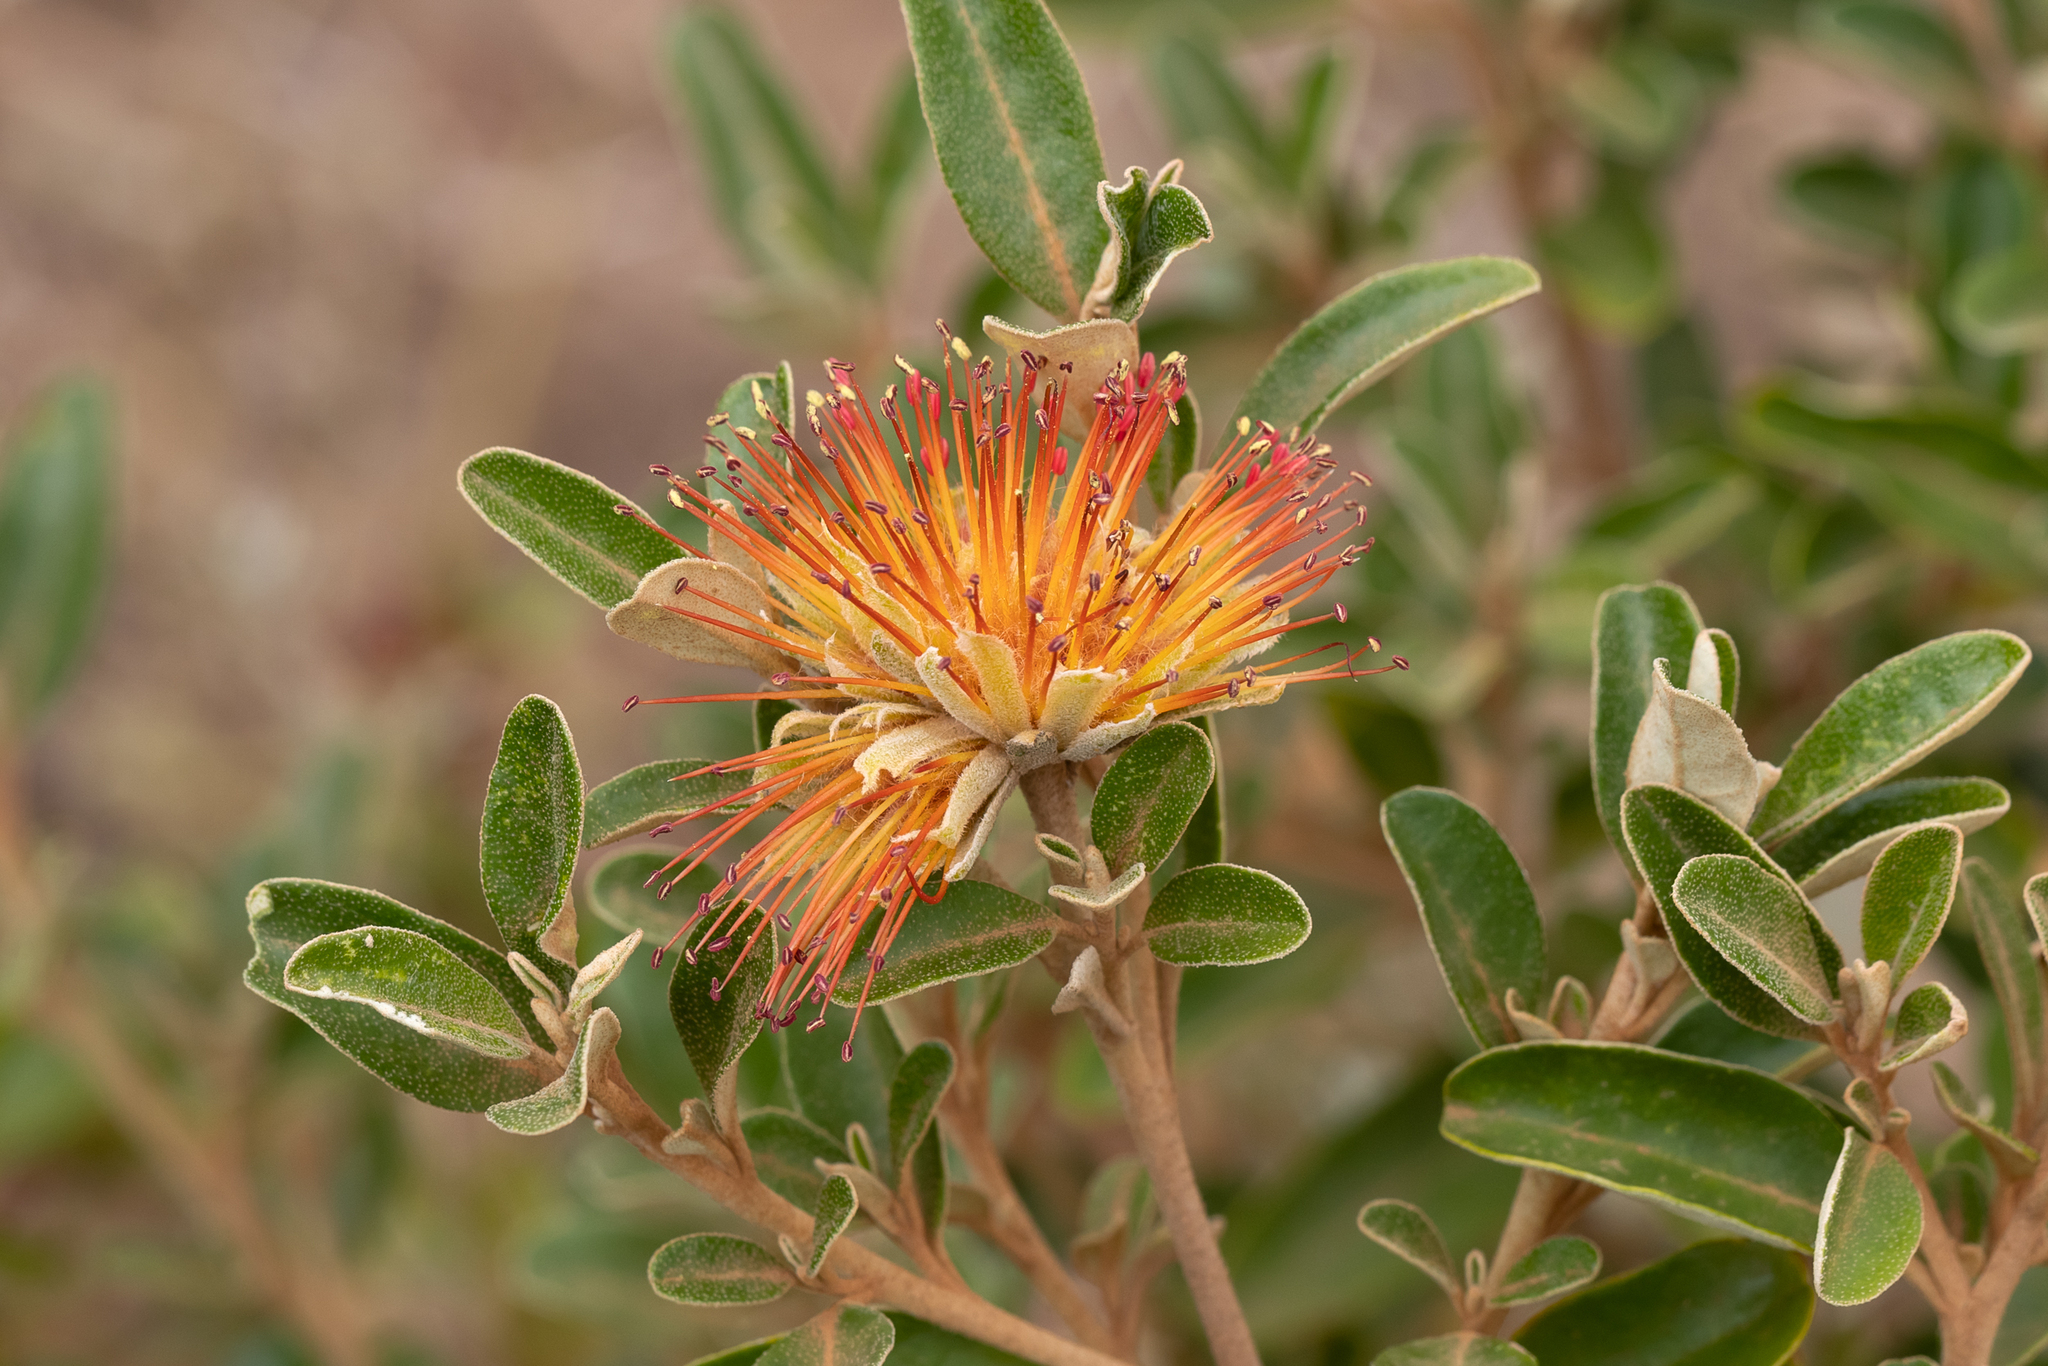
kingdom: Plantae
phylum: Tracheophyta
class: Magnoliopsida
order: Sapindales
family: Rutaceae
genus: Diplolaena
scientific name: Diplolaena dampieri
